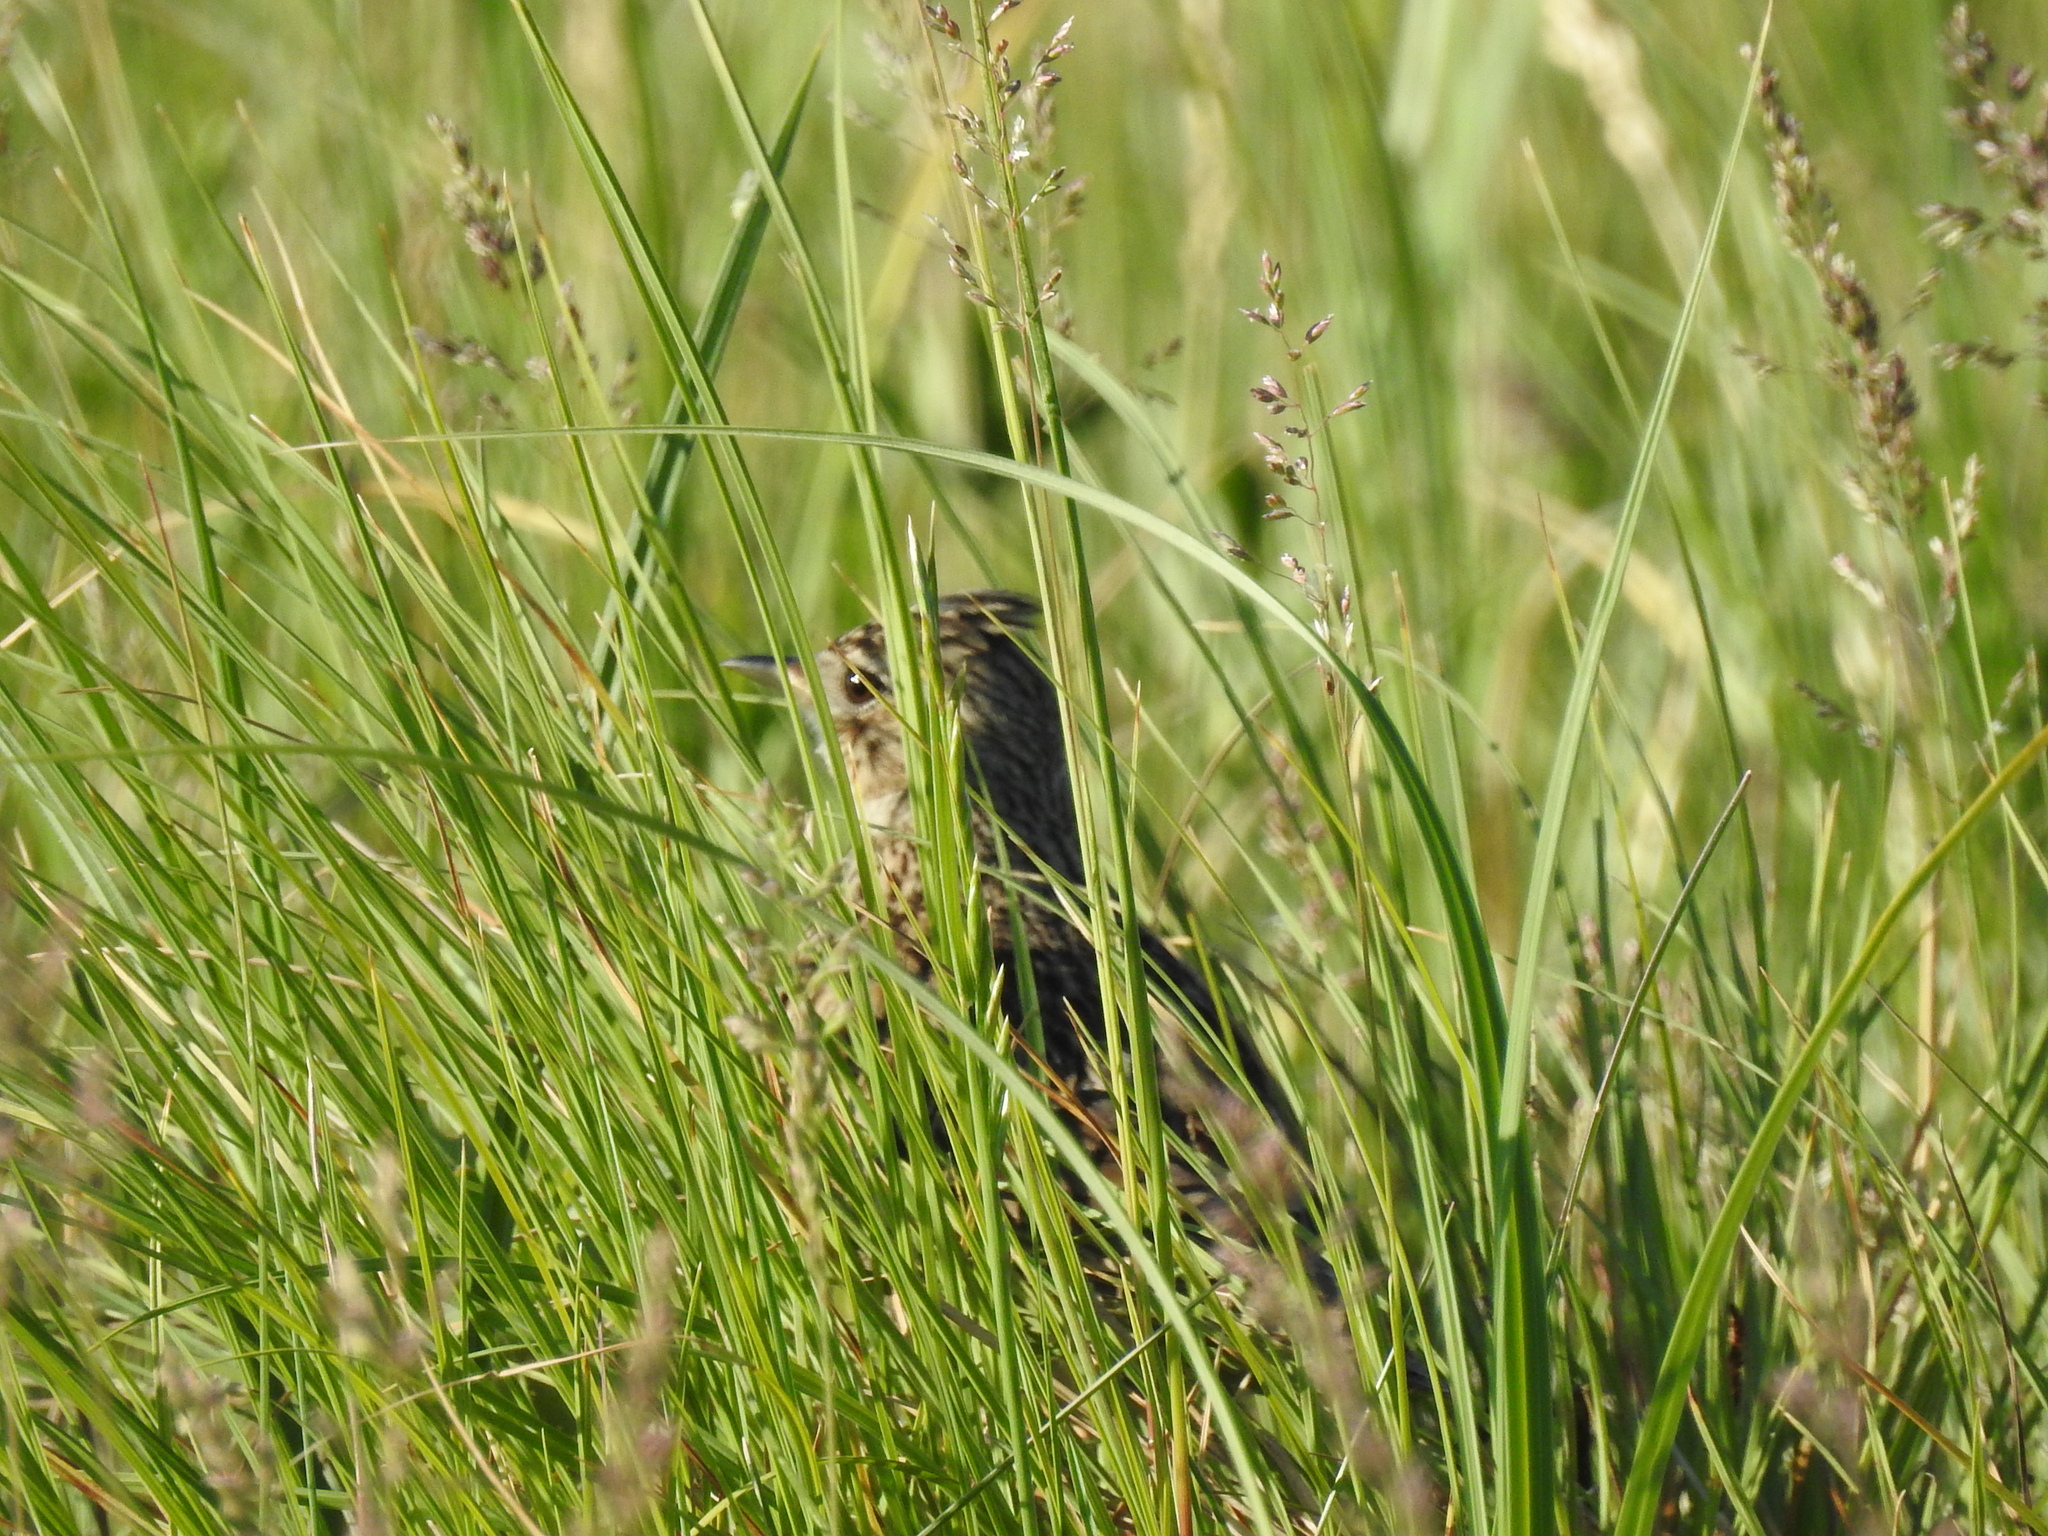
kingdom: Animalia
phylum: Chordata
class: Aves
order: Passeriformes
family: Alaudidae
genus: Alauda
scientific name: Alauda arvensis
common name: Eurasian skylark
